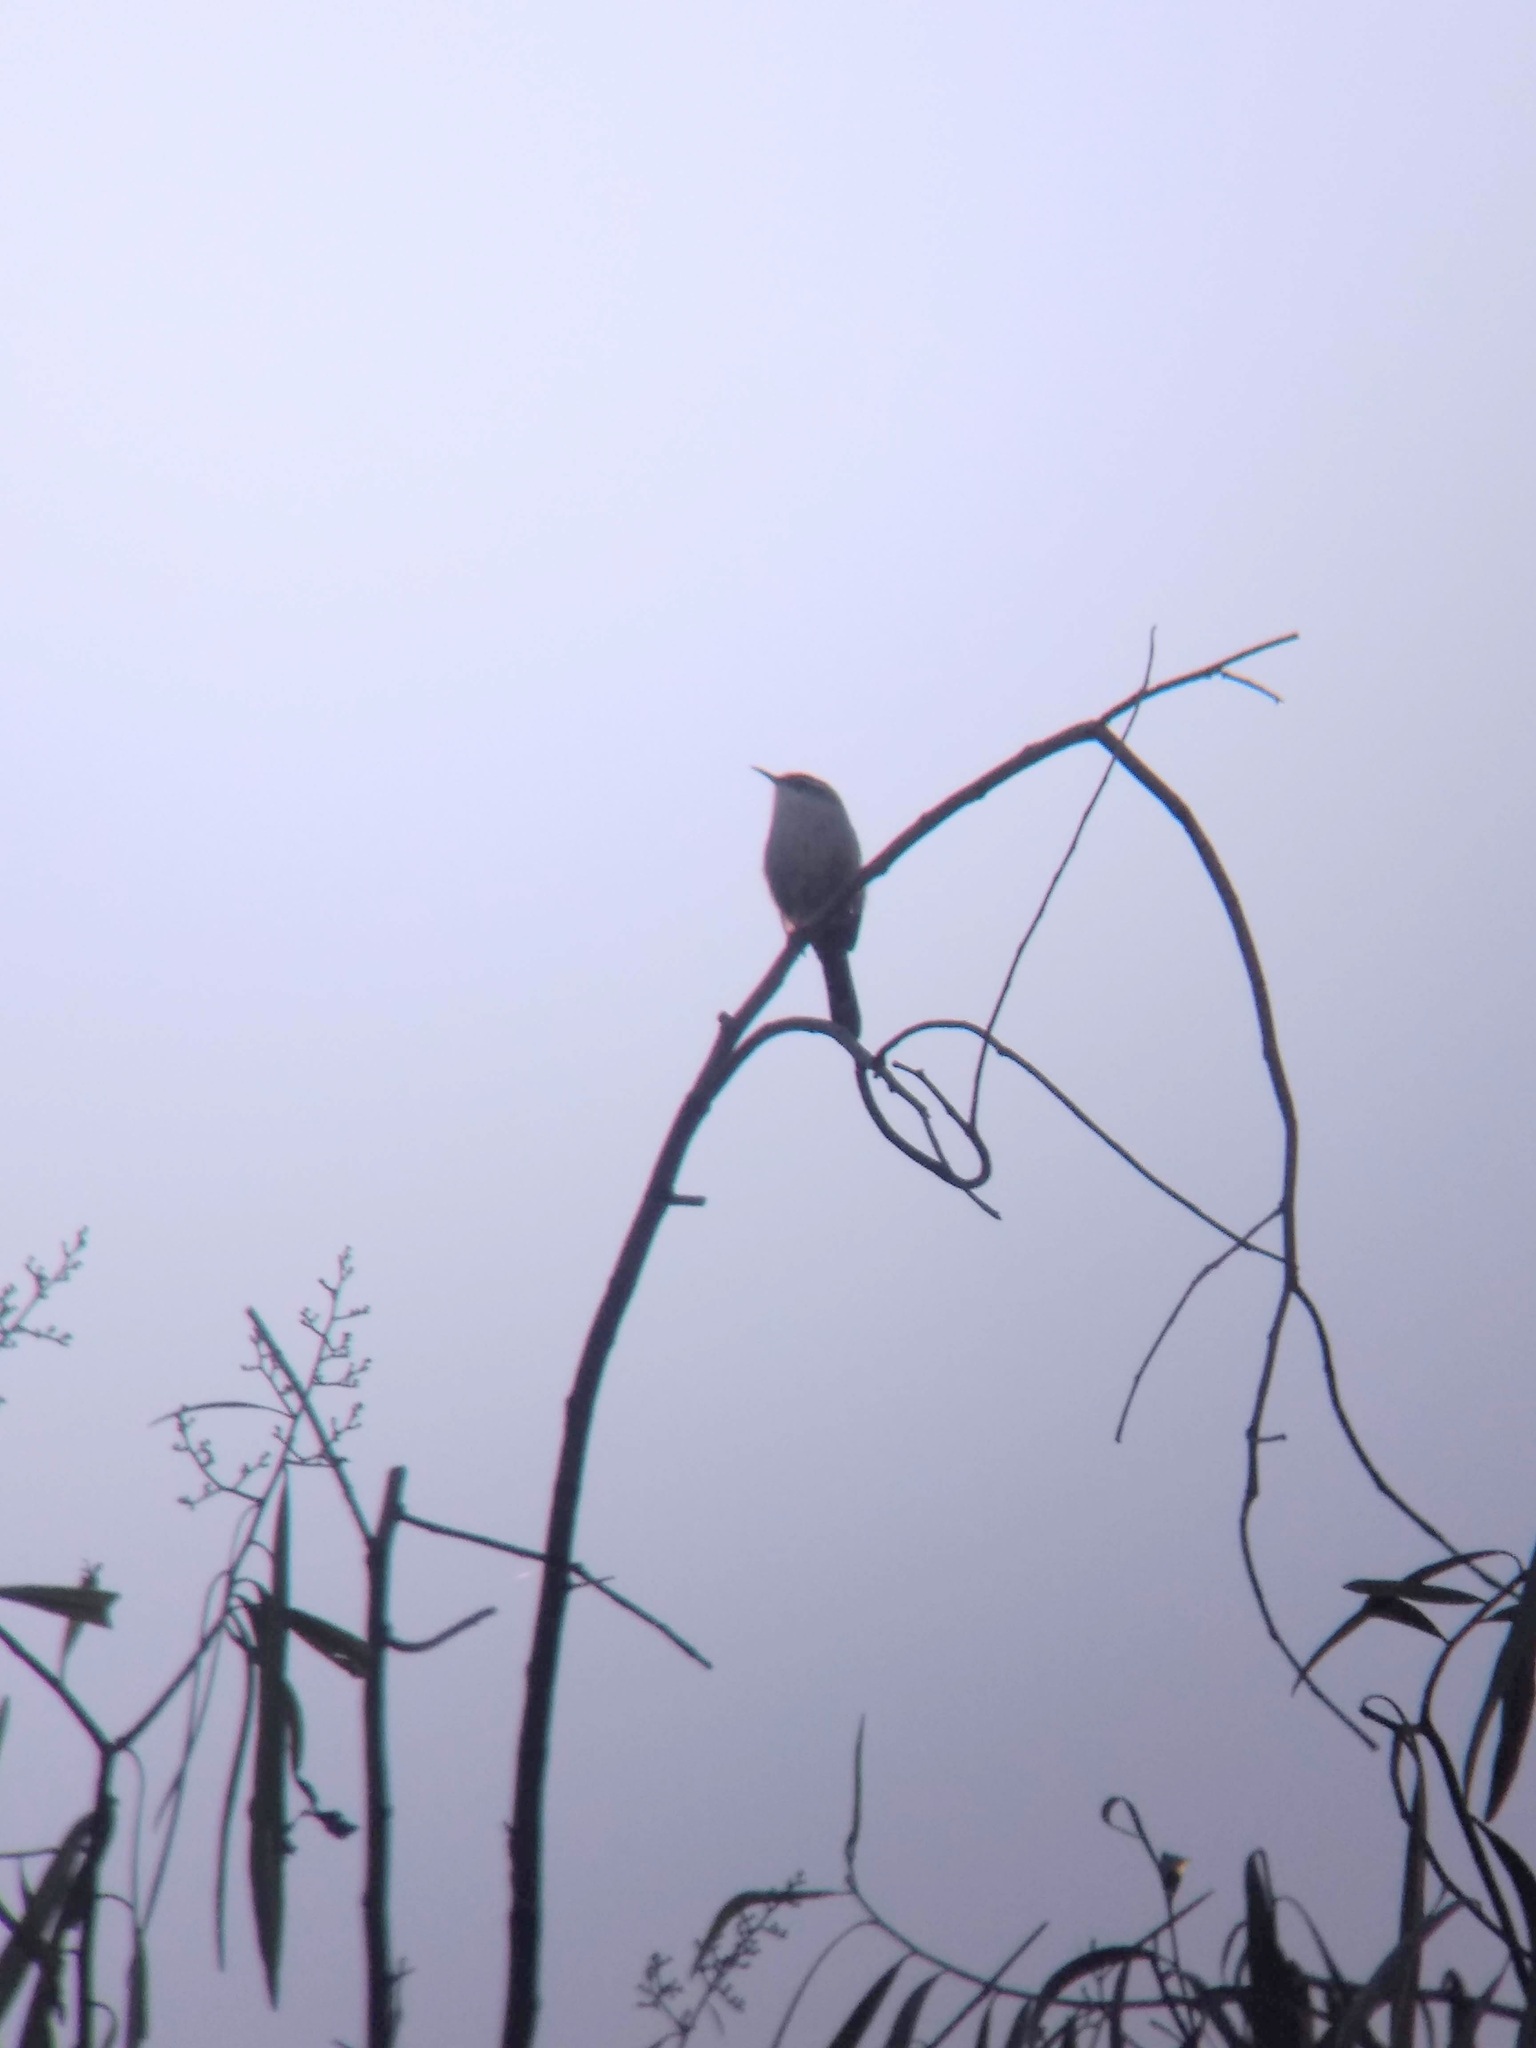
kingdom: Animalia
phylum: Chordata
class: Aves
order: Passeriformes
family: Troglodytidae
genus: Thryomanes
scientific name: Thryomanes bewickii
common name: Bewick's wren
